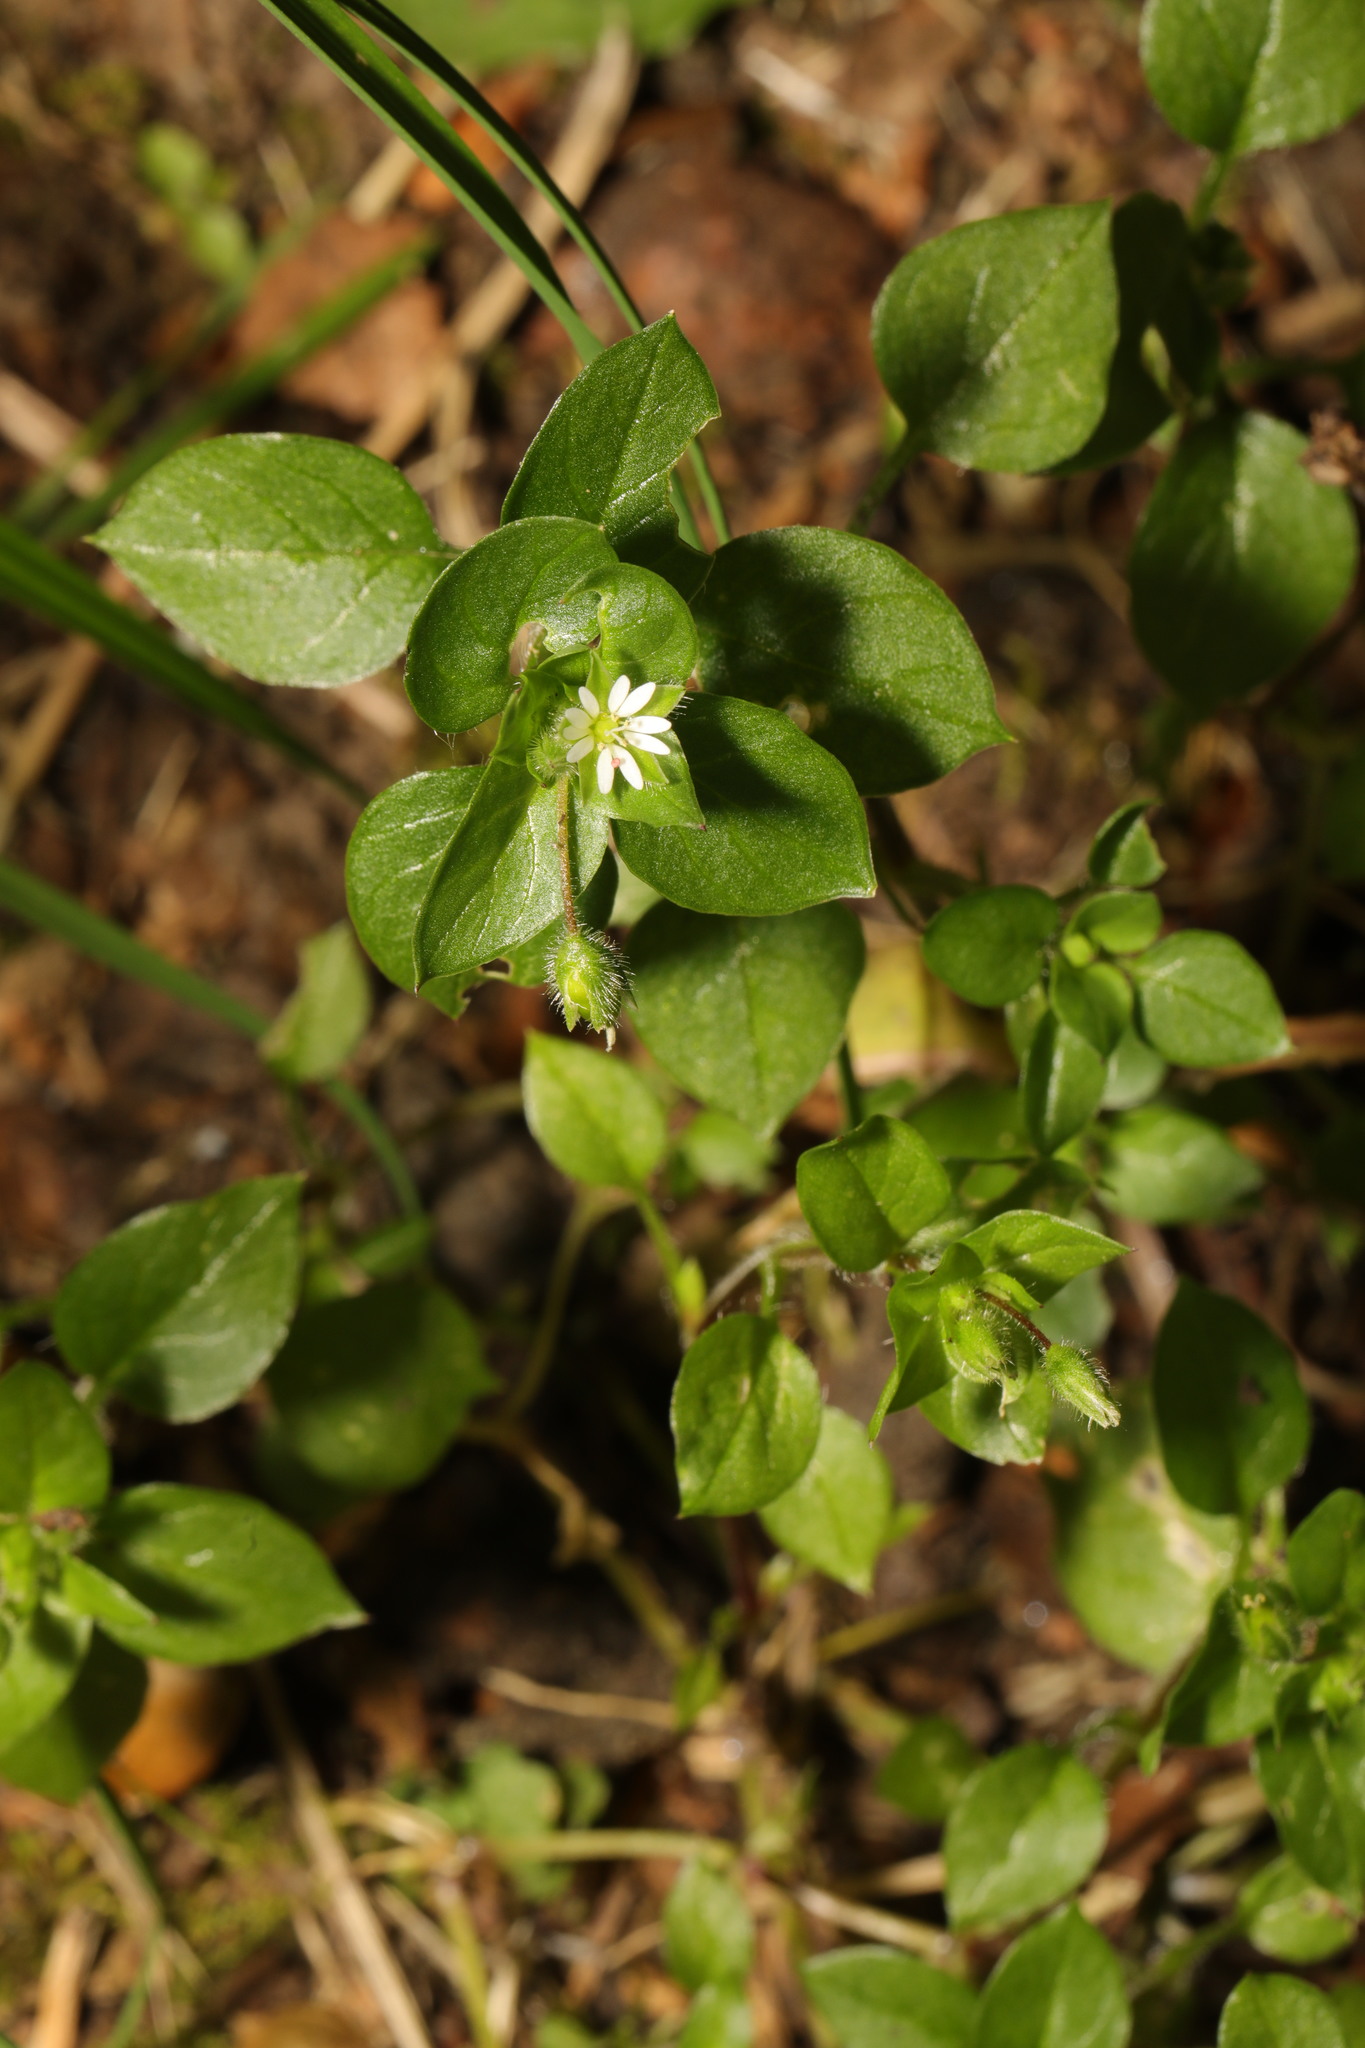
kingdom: Plantae
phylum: Tracheophyta
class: Magnoliopsida
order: Caryophyllales
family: Caryophyllaceae
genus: Stellaria
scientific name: Stellaria media
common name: Common chickweed
